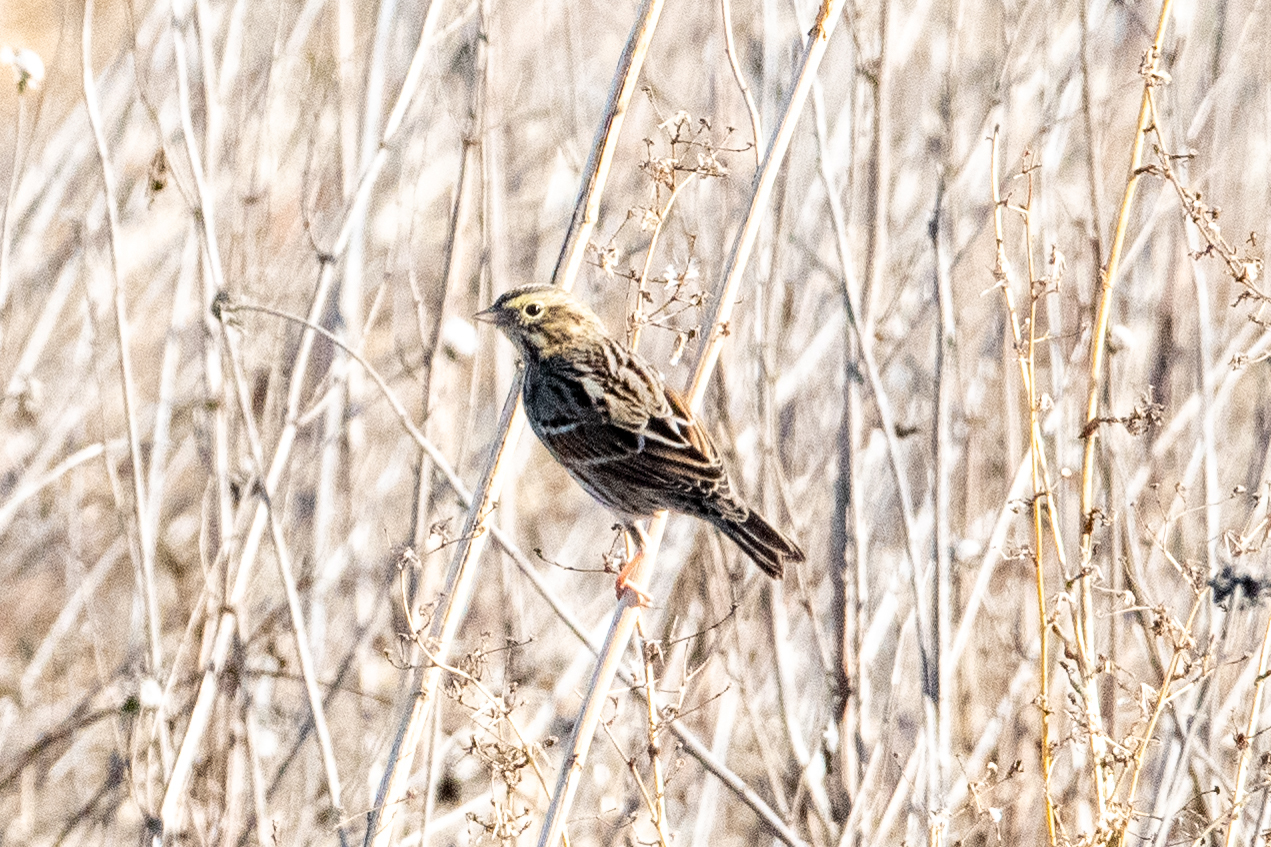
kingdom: Animalia
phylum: Chordata
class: Aves
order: Passeriformes
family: Passerellidae
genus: Passerculus
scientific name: Passerculus sandwichensis
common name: Savannah sparrow
